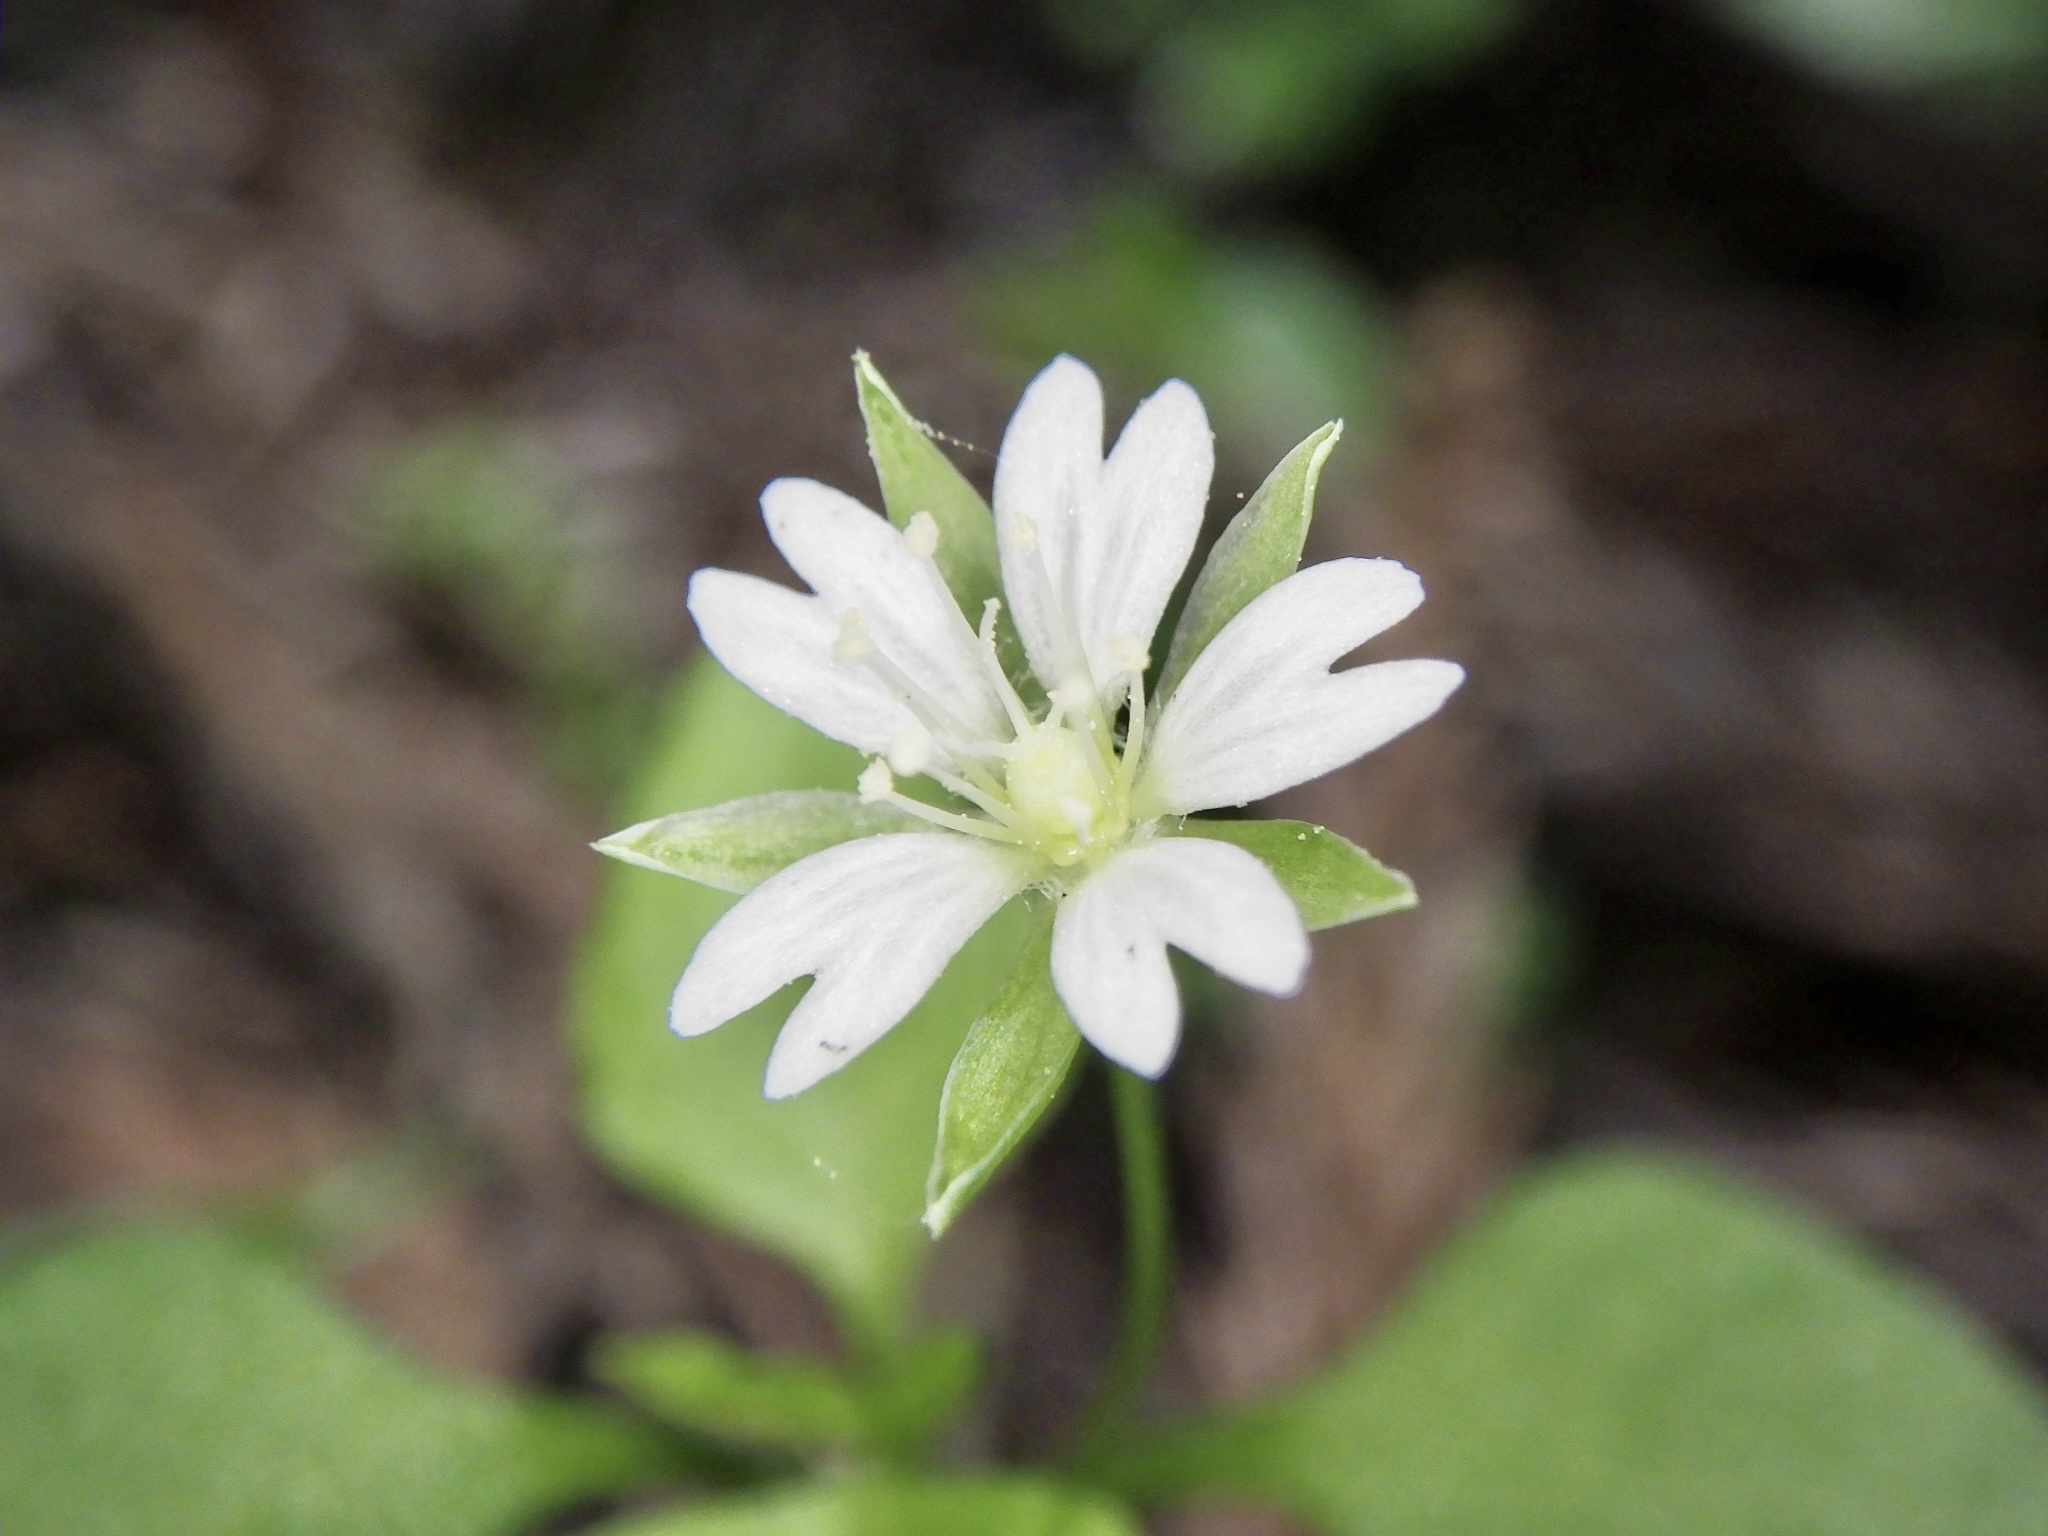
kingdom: Plantae
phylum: Tracheophyta
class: Magnoliopsida
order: Caryophyllales
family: Caryophyllaceae
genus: Nubelaria
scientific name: Nubelaria diversiflora
